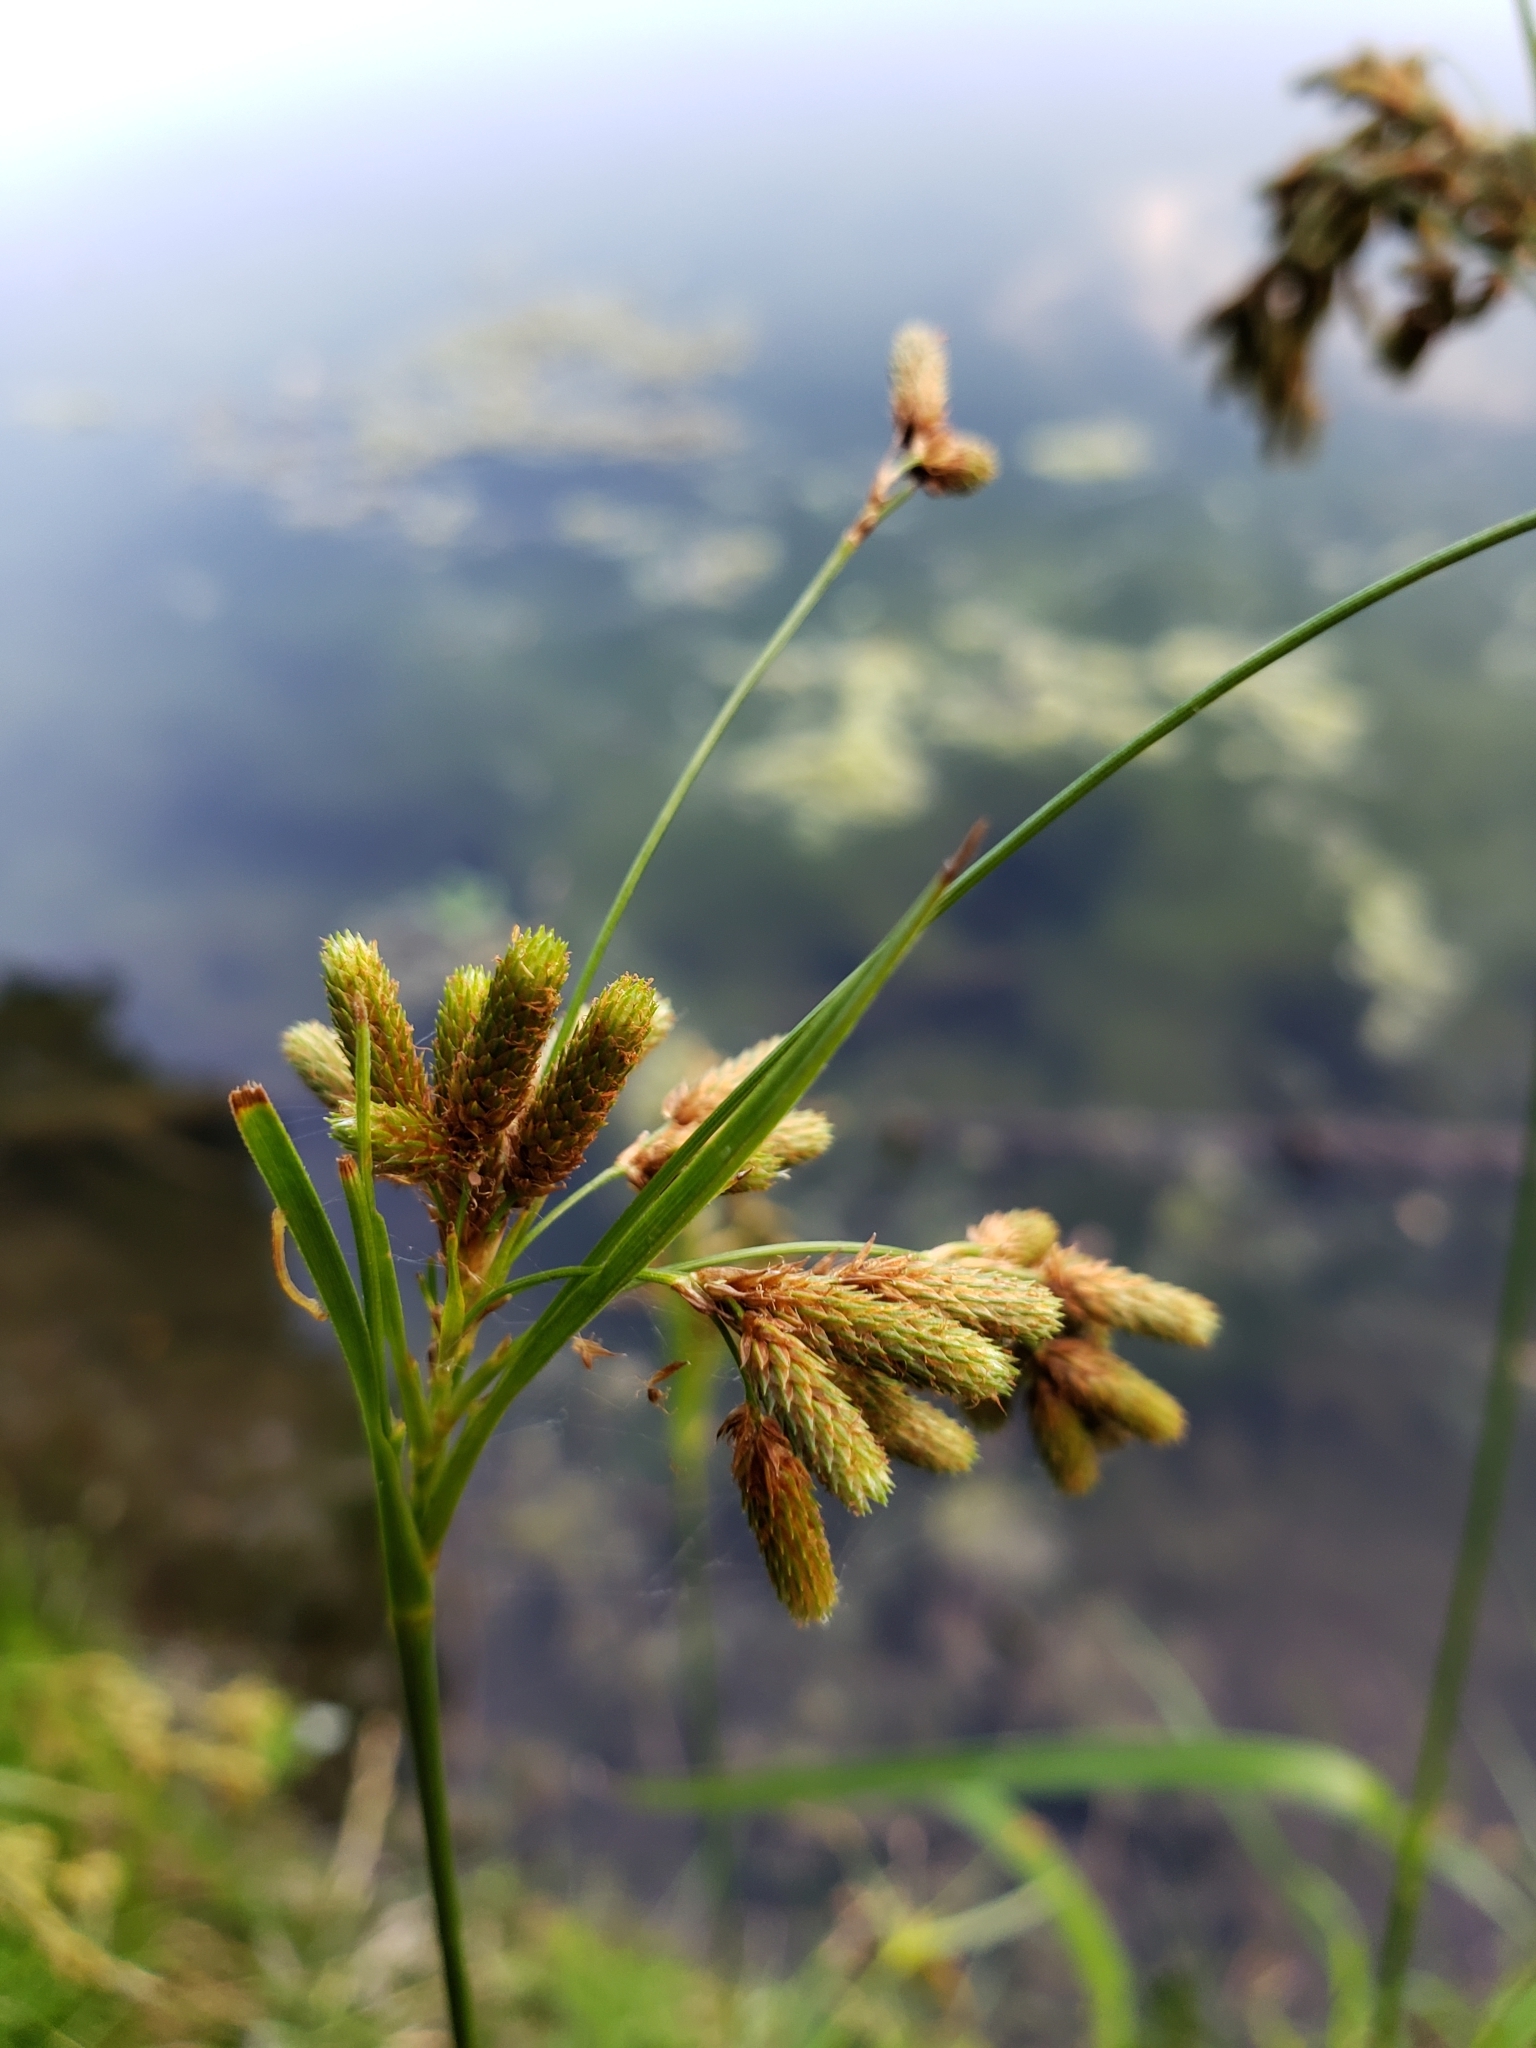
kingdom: Plantae
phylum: Tracheophyta
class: Liliopsida
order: Poales
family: Cyperaceae
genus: Scirpus
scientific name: Scirpus pendulus
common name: Nodding bulrush
